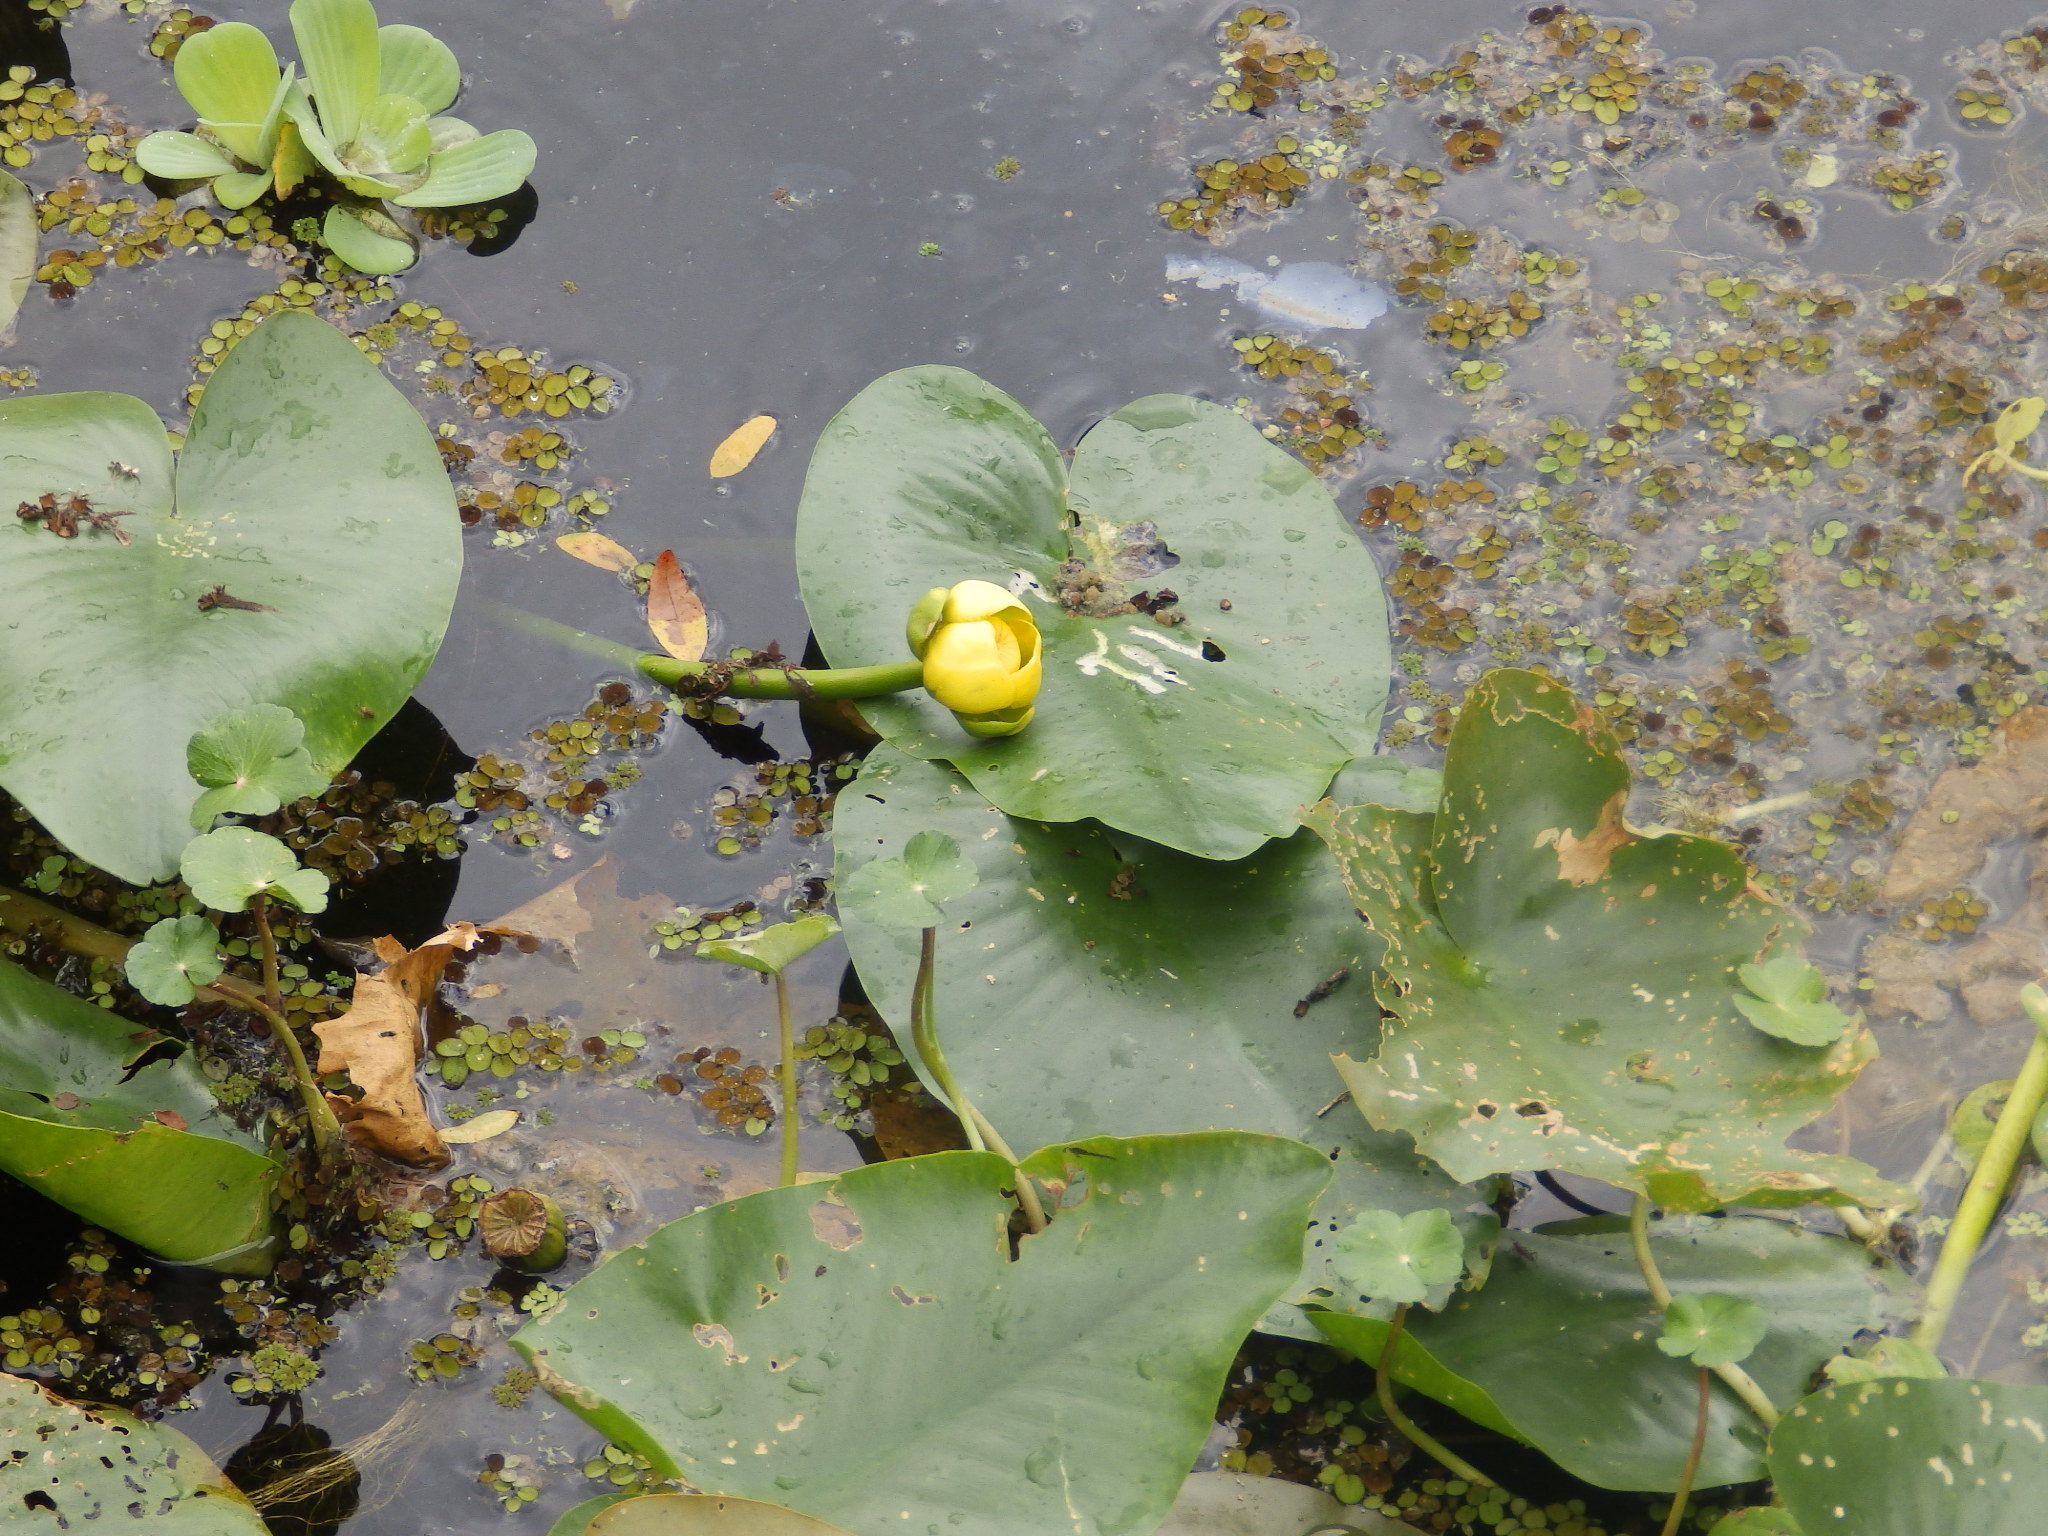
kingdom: Plantae
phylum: Tracheophyta
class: Magnoliopsida
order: Nymphaeales
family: Nymphaeaceae
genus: Nuphar
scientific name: Nuphar advena
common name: Spatter-dock
